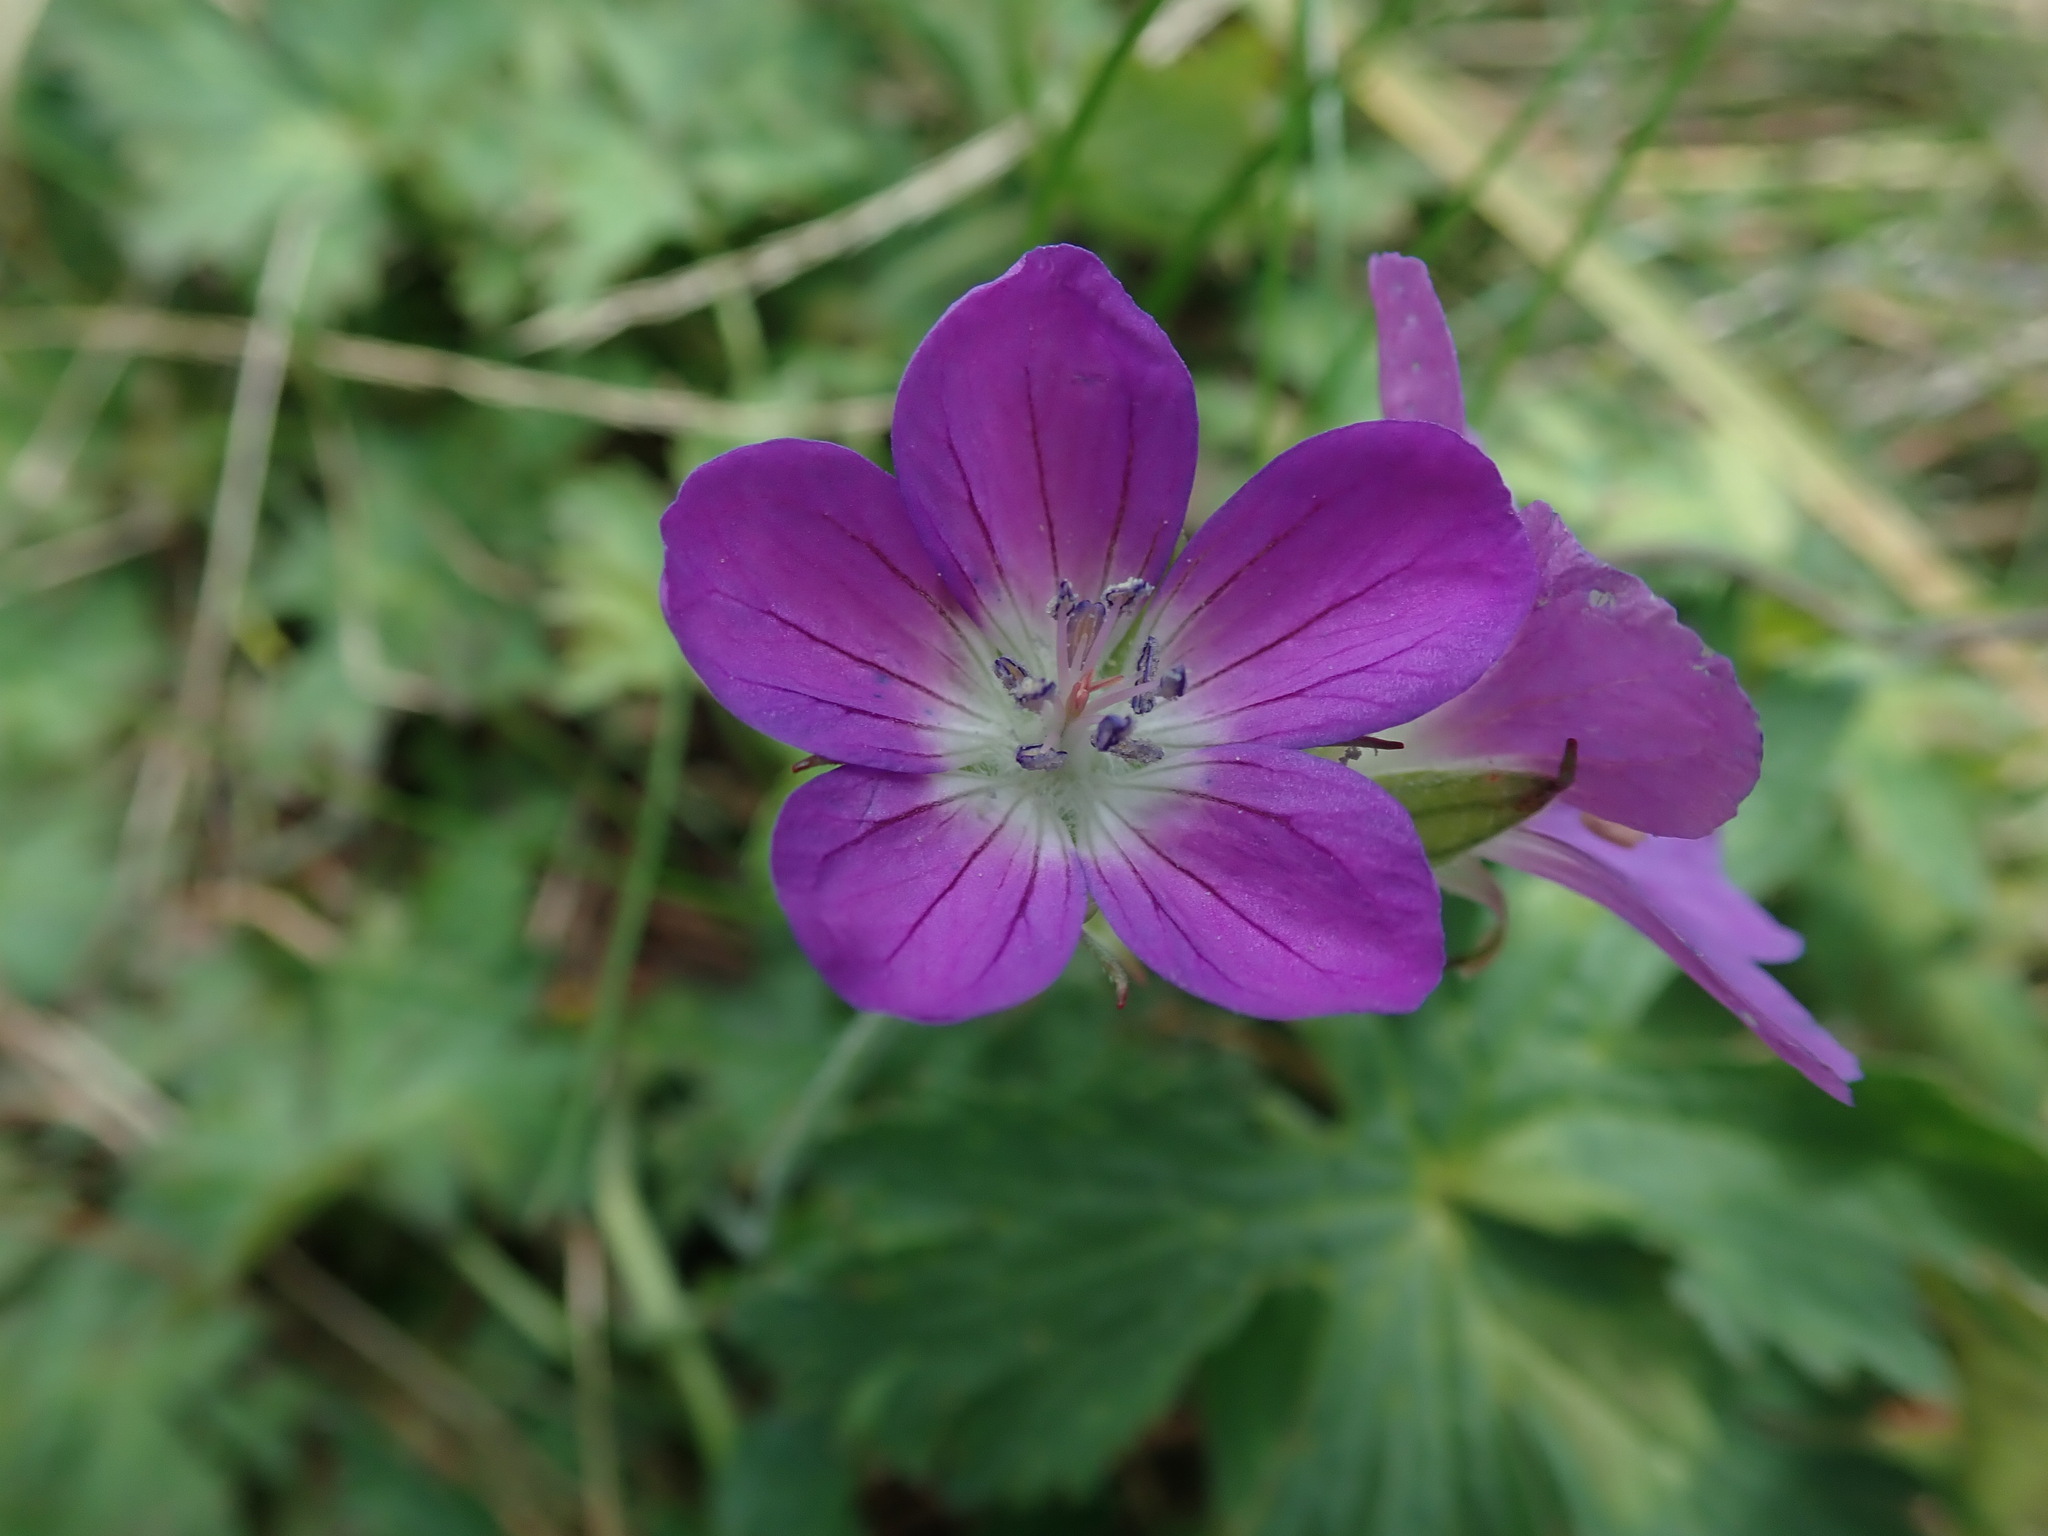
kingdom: Plantae
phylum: Tracheophyta
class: Magnoliopsida
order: Geraniales
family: Geraniaceae
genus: Geranium
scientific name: Geranium sylvaticum
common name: Wood crane's-bill
